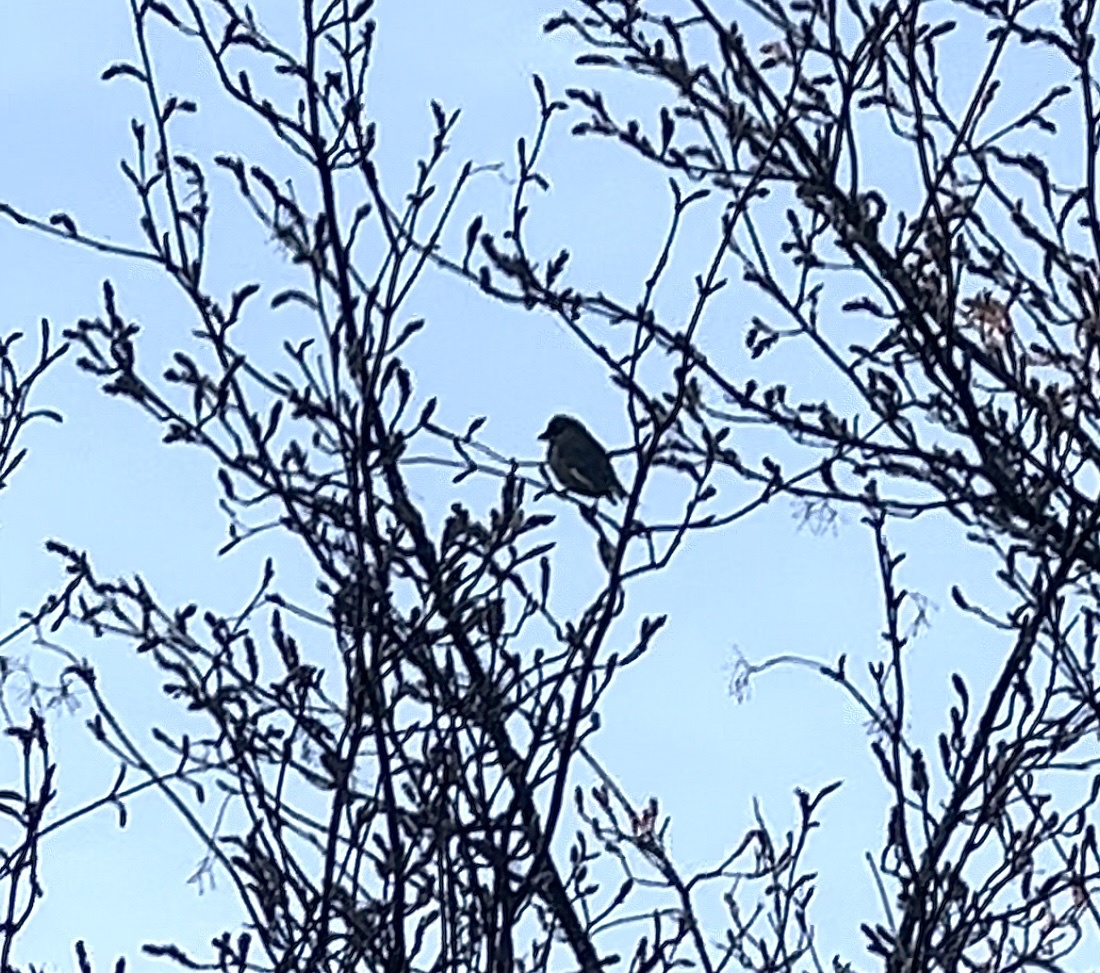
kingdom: Plantae
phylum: Tracheophyta
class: Liliopsida
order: Poales
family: Poaceae
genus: Chloris
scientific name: Chloris chloris
